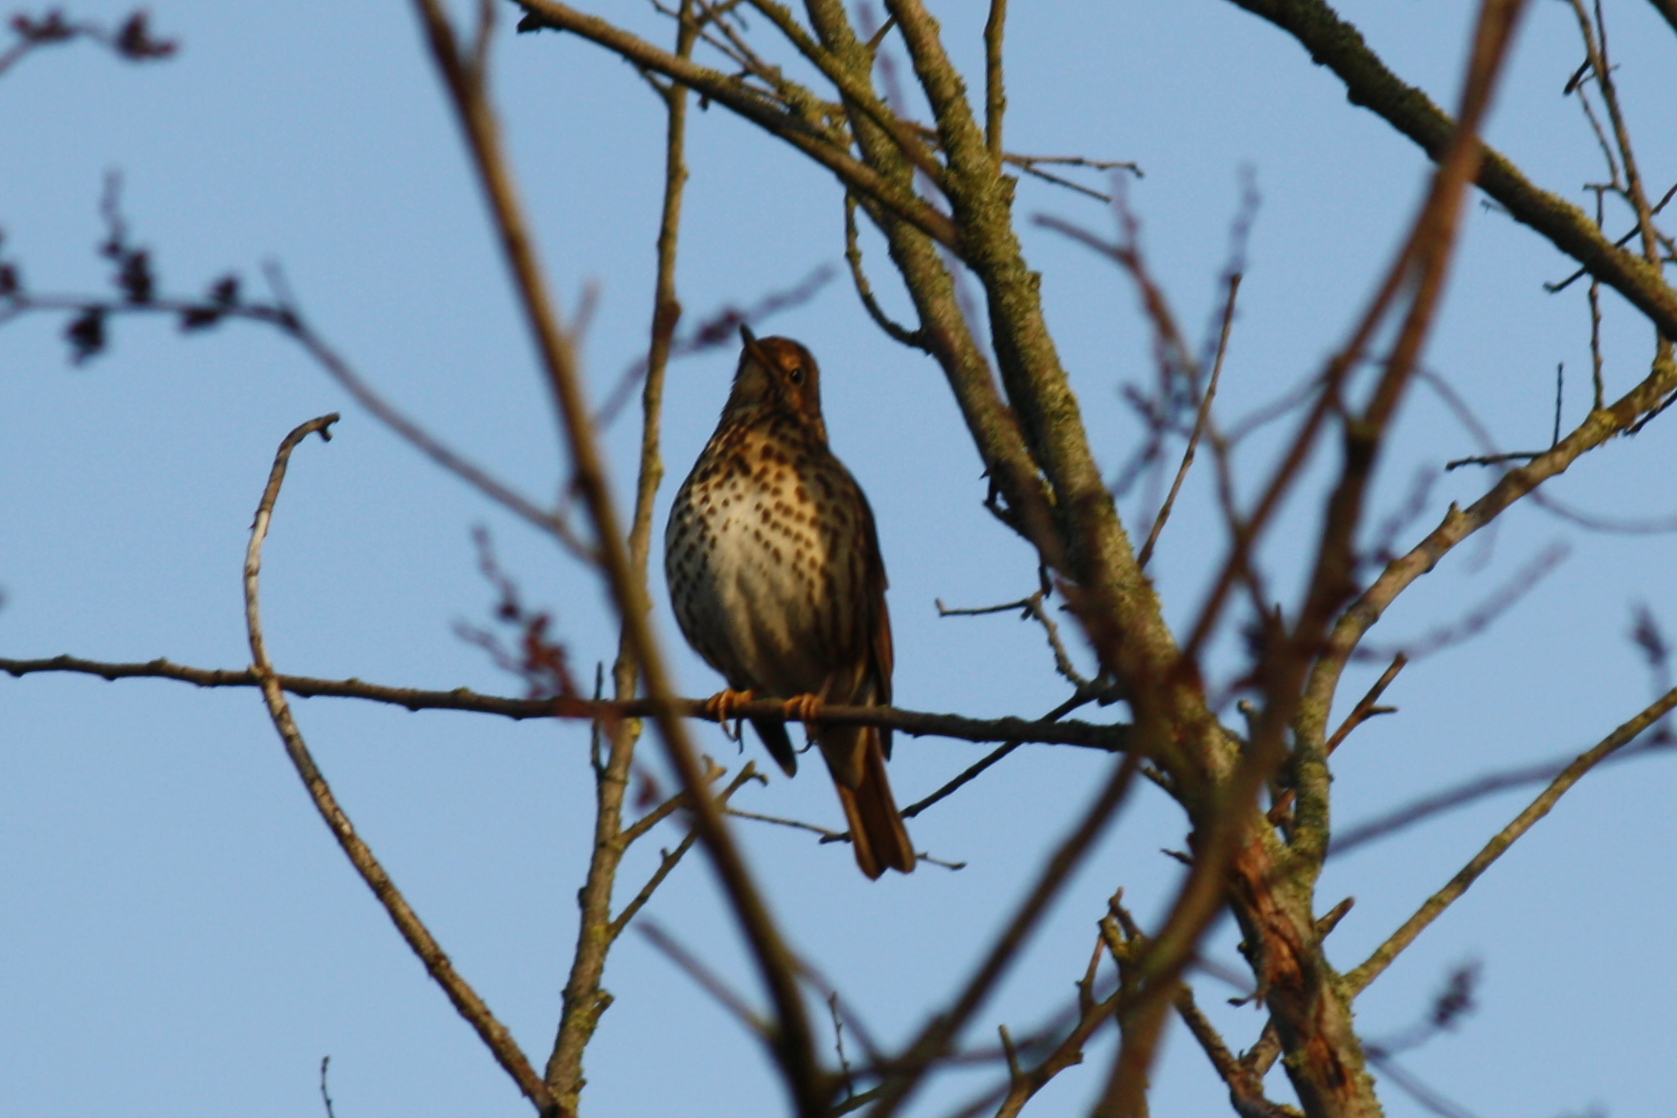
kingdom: Animalia
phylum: Chordata
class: Aves
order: Passeriformes
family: Turdidae
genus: Turdus
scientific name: Turdus philomelos
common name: Song thrush
